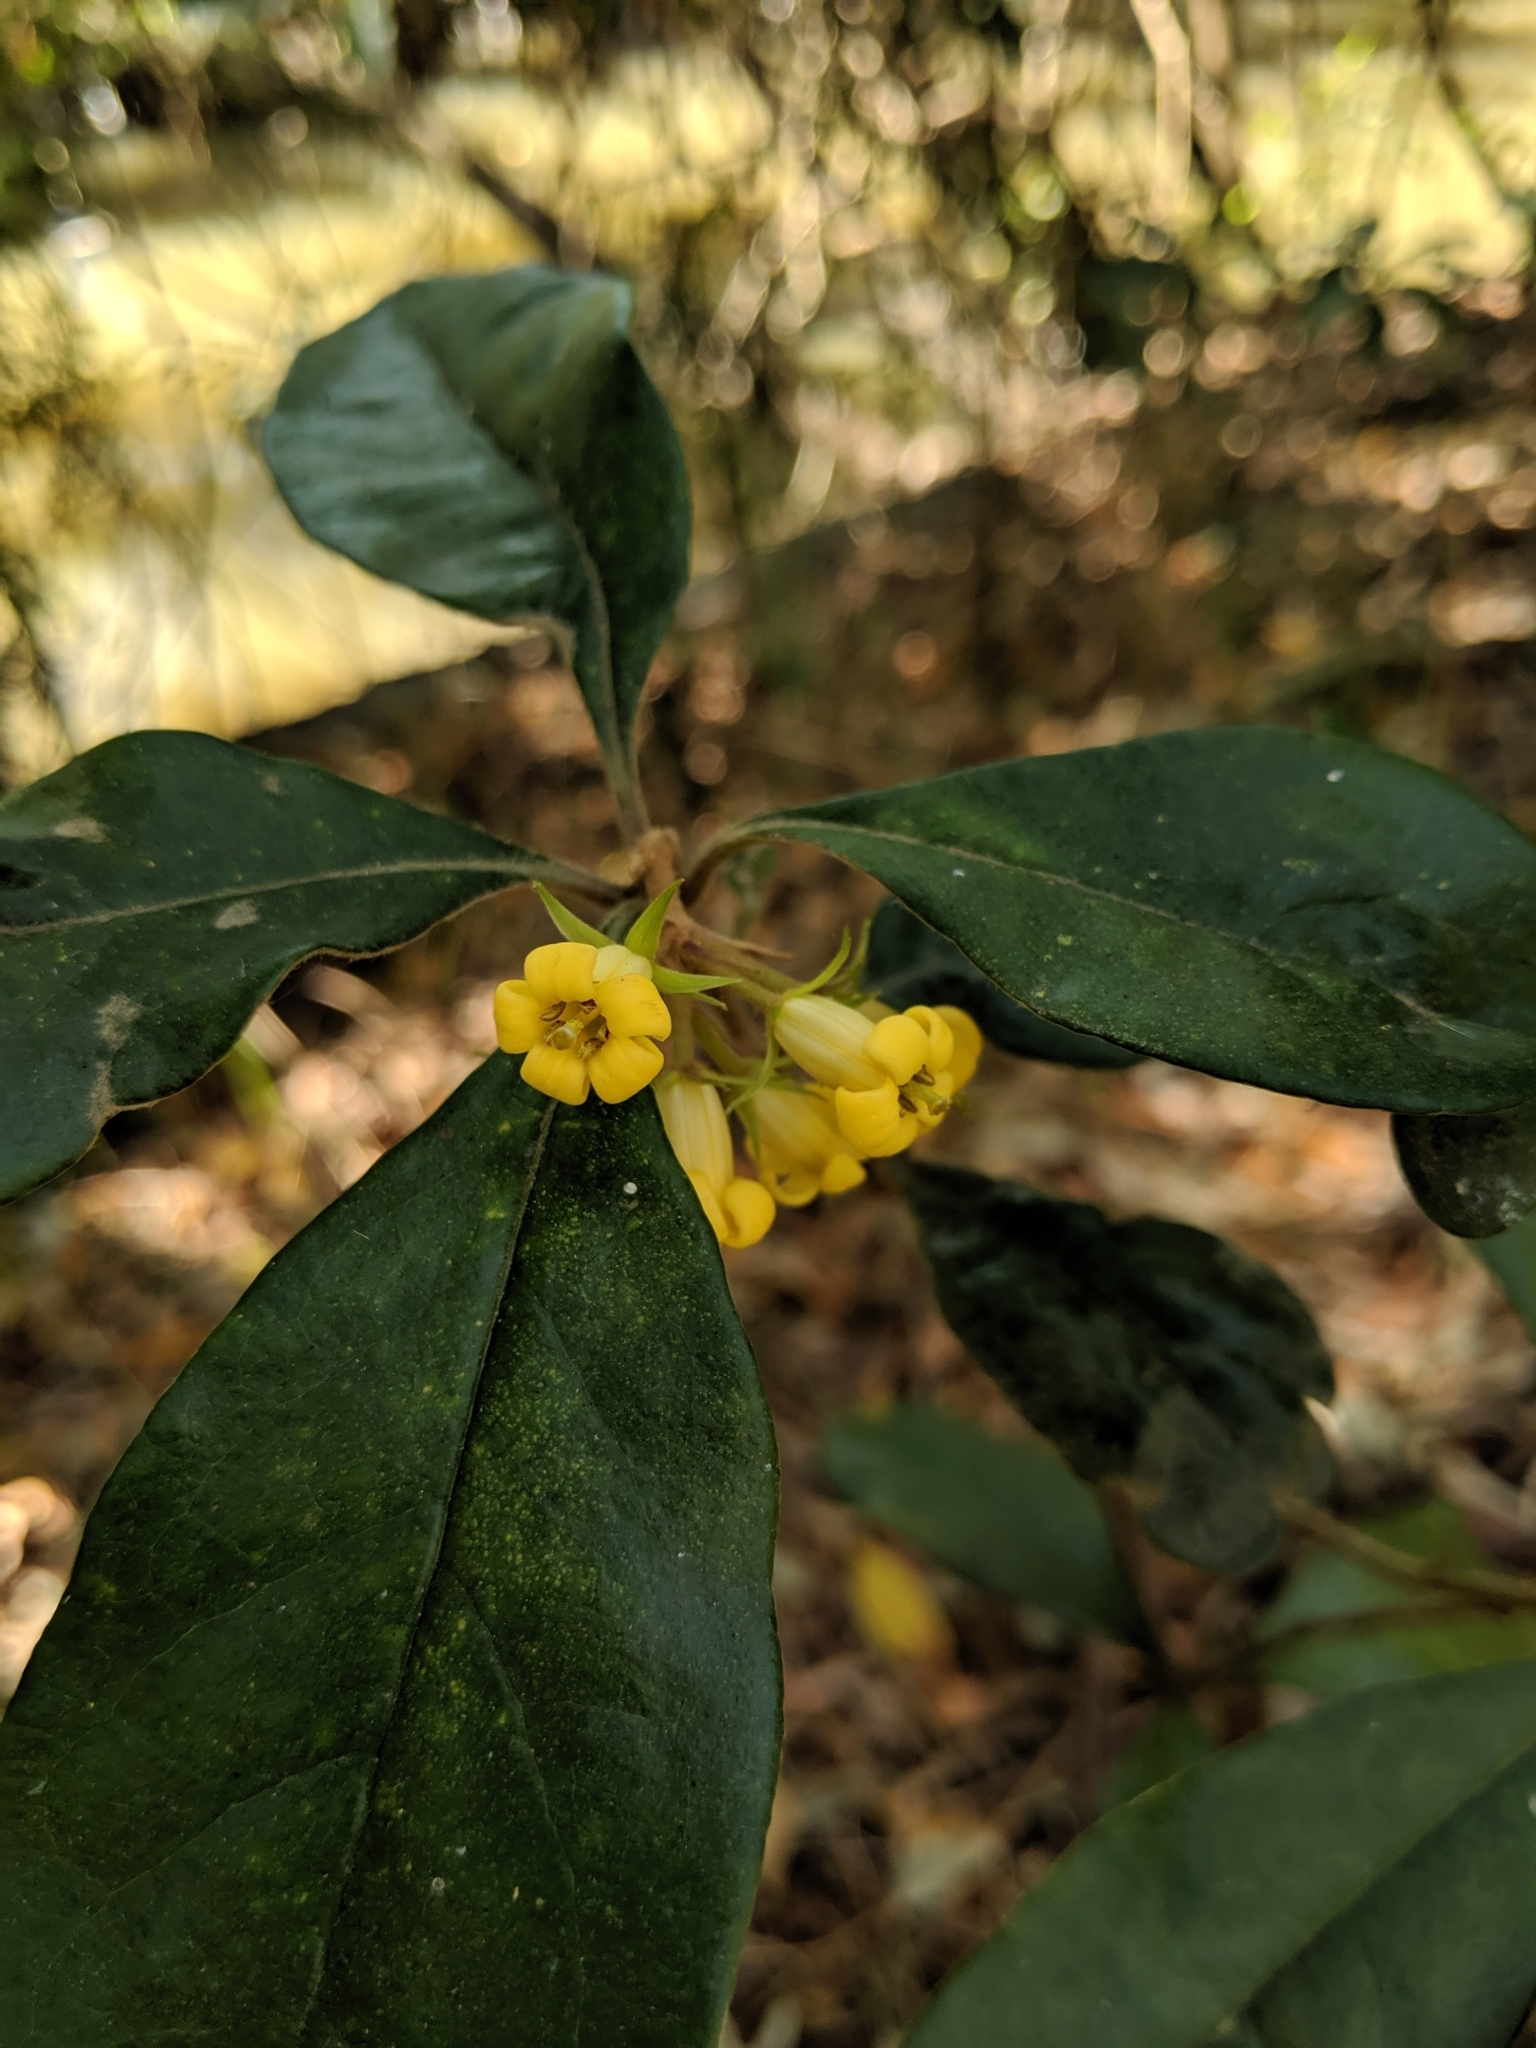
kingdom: Plantae
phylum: Tracheophyta
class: Magnoliopsida
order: Apiales
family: Pittosporaceae
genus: Pittosporum
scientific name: Pittosporum revolutum
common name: Brisbane-laurel
